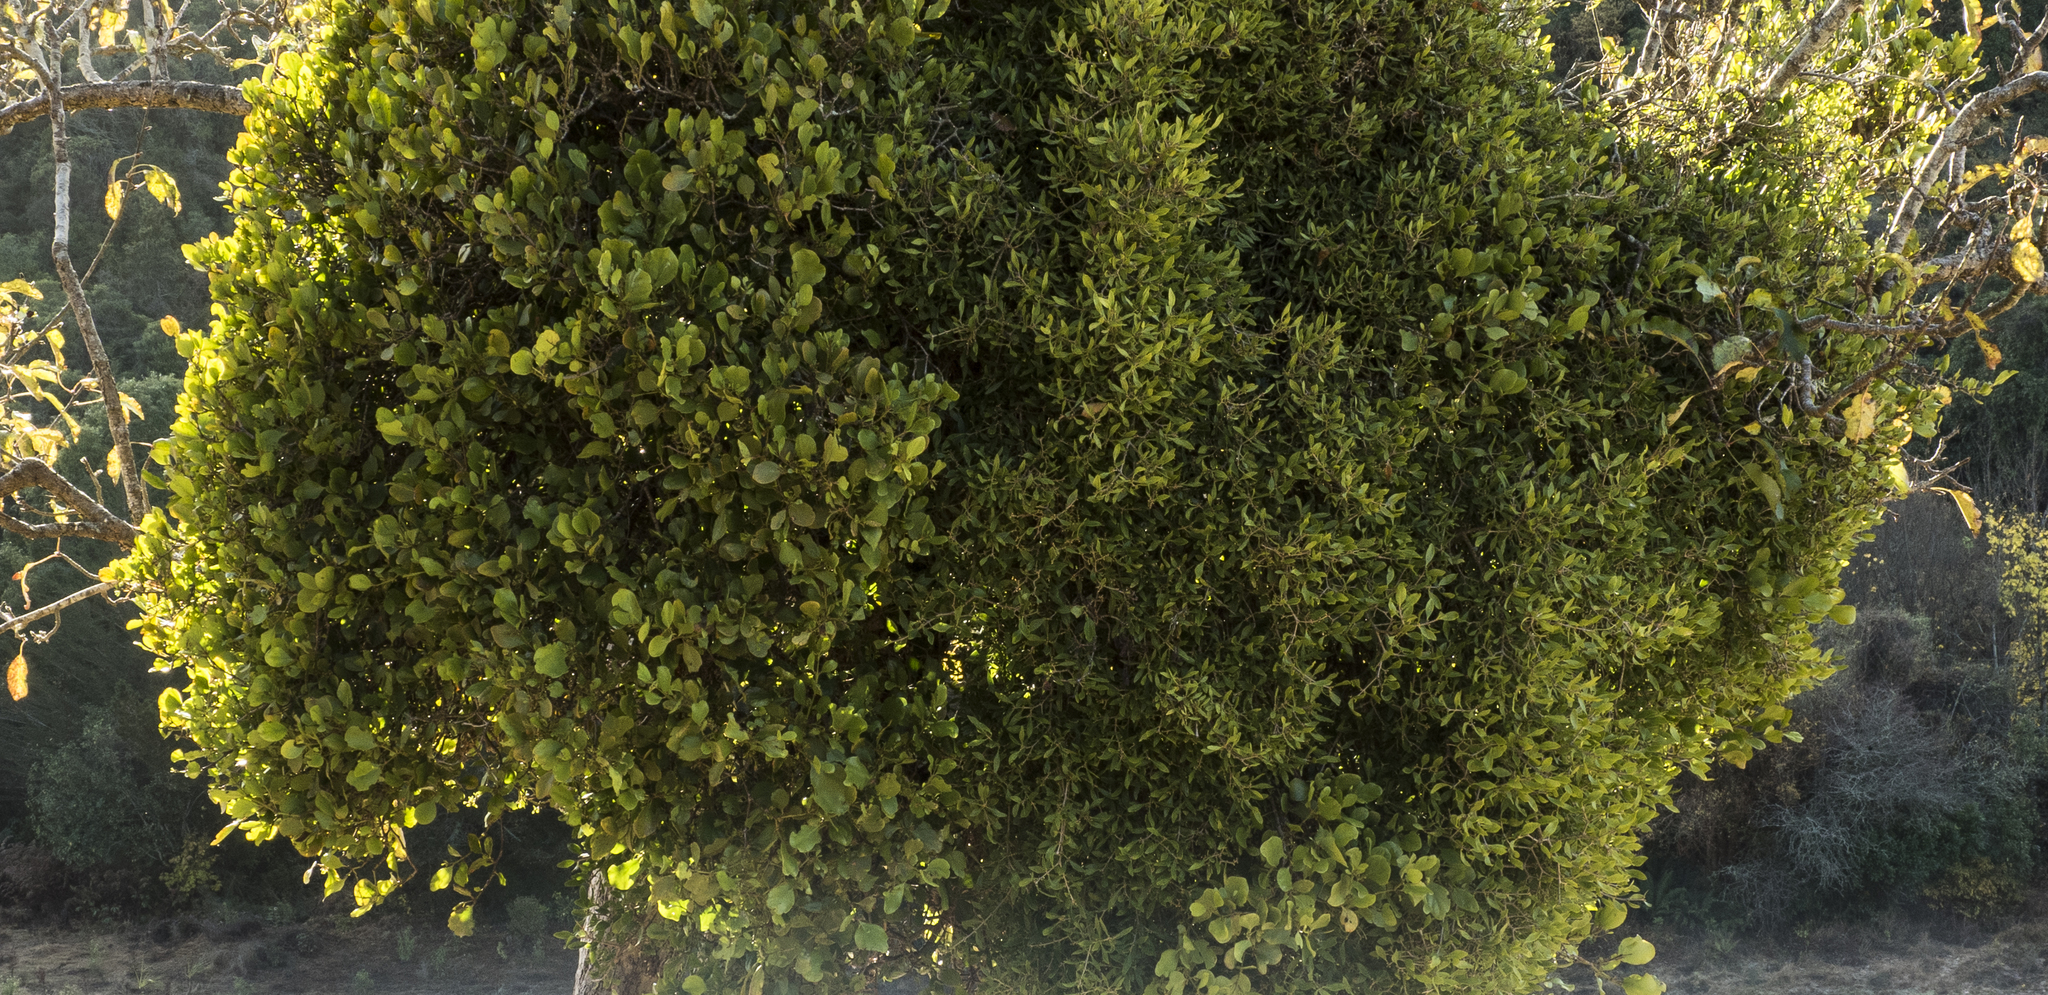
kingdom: Plantae
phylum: Tracheophyta
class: Magnoliopsida
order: Santalales
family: Loranthaceae
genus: Ileostylus
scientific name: Ileostylus micranthus
